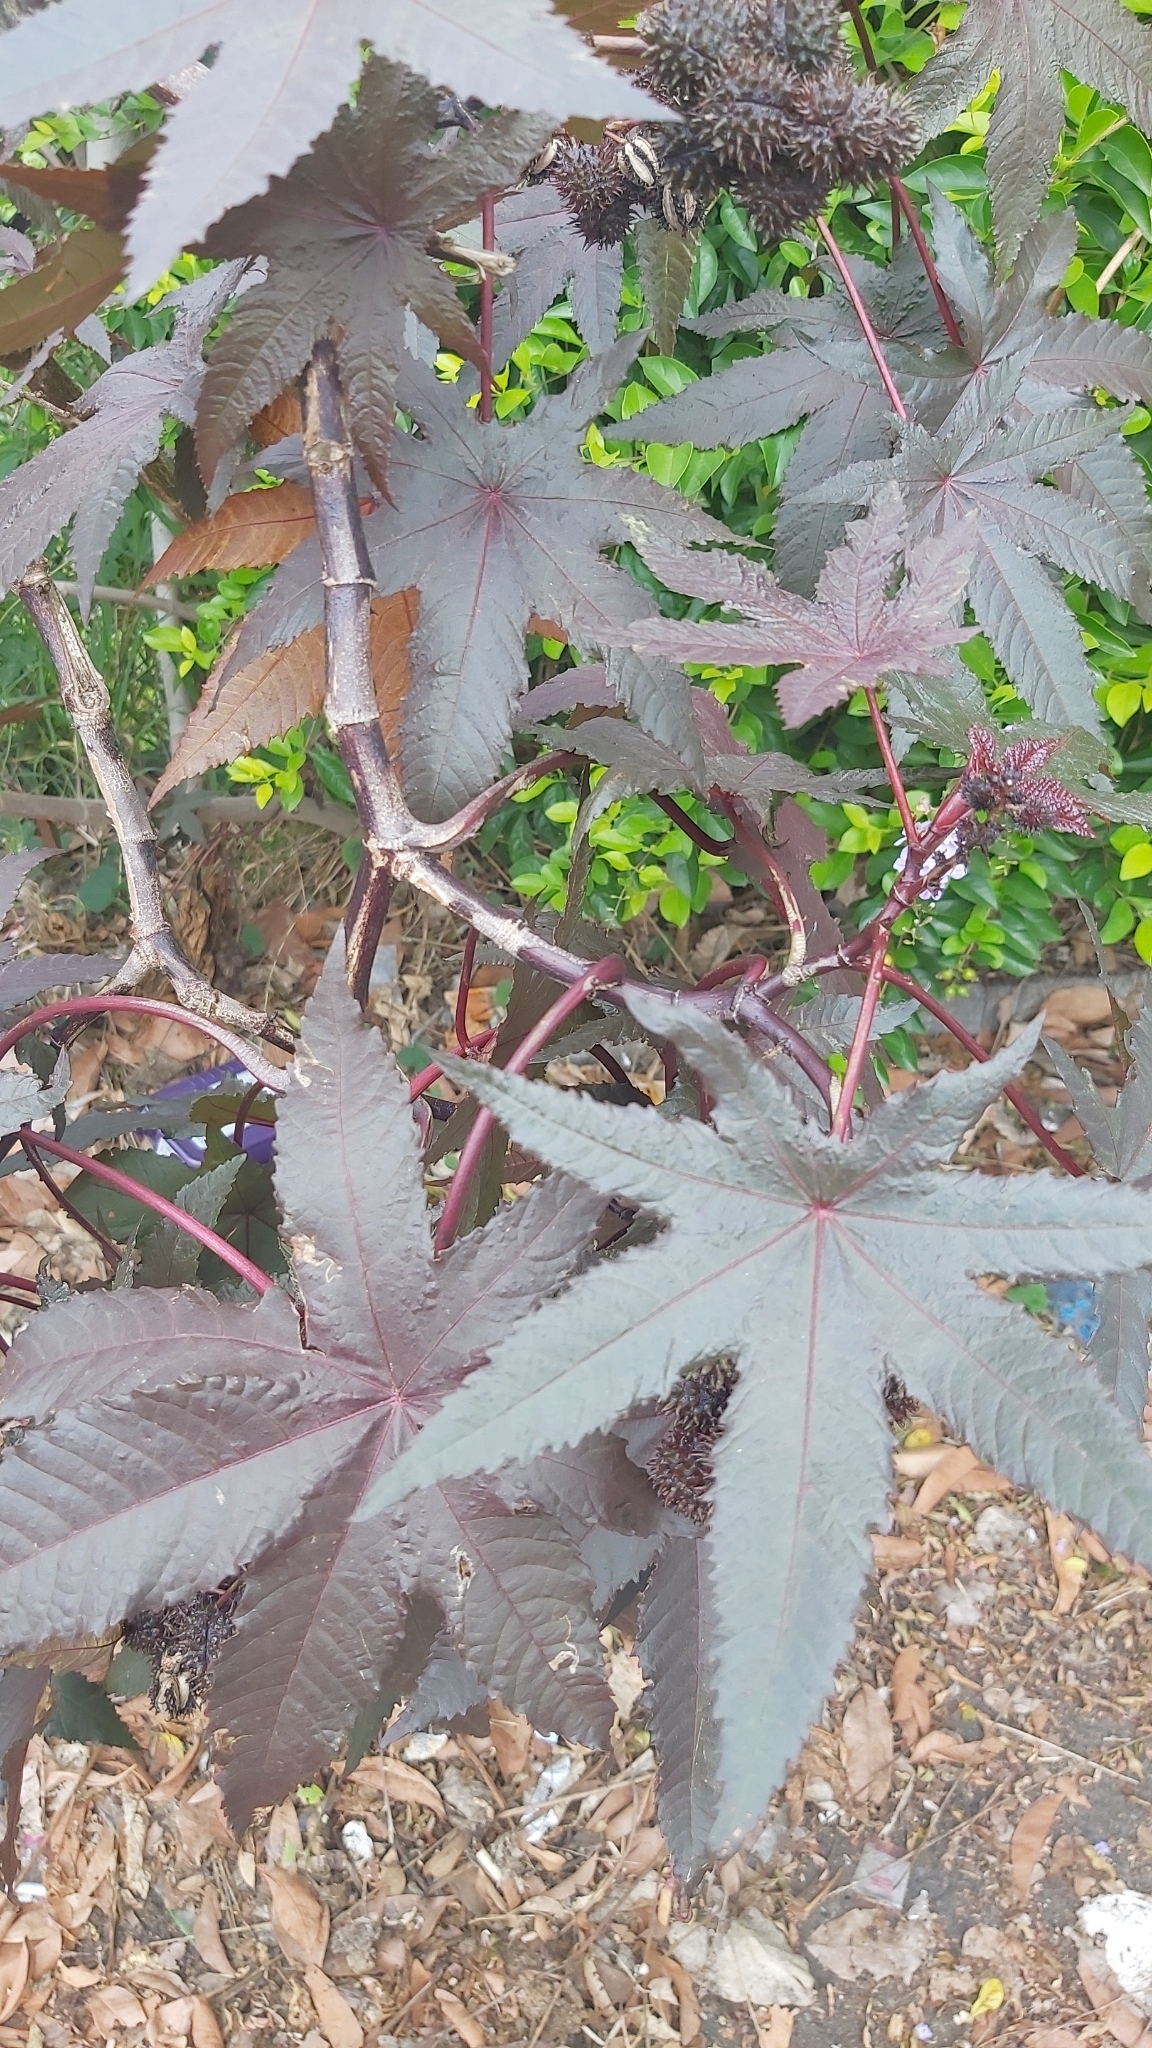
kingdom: Plantae
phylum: Tracheophyta
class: Magnoliopsida
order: Malpighiales
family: Euphorbiaceae
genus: Ricinus
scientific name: Ricinus communis
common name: Castor-oil-plant
